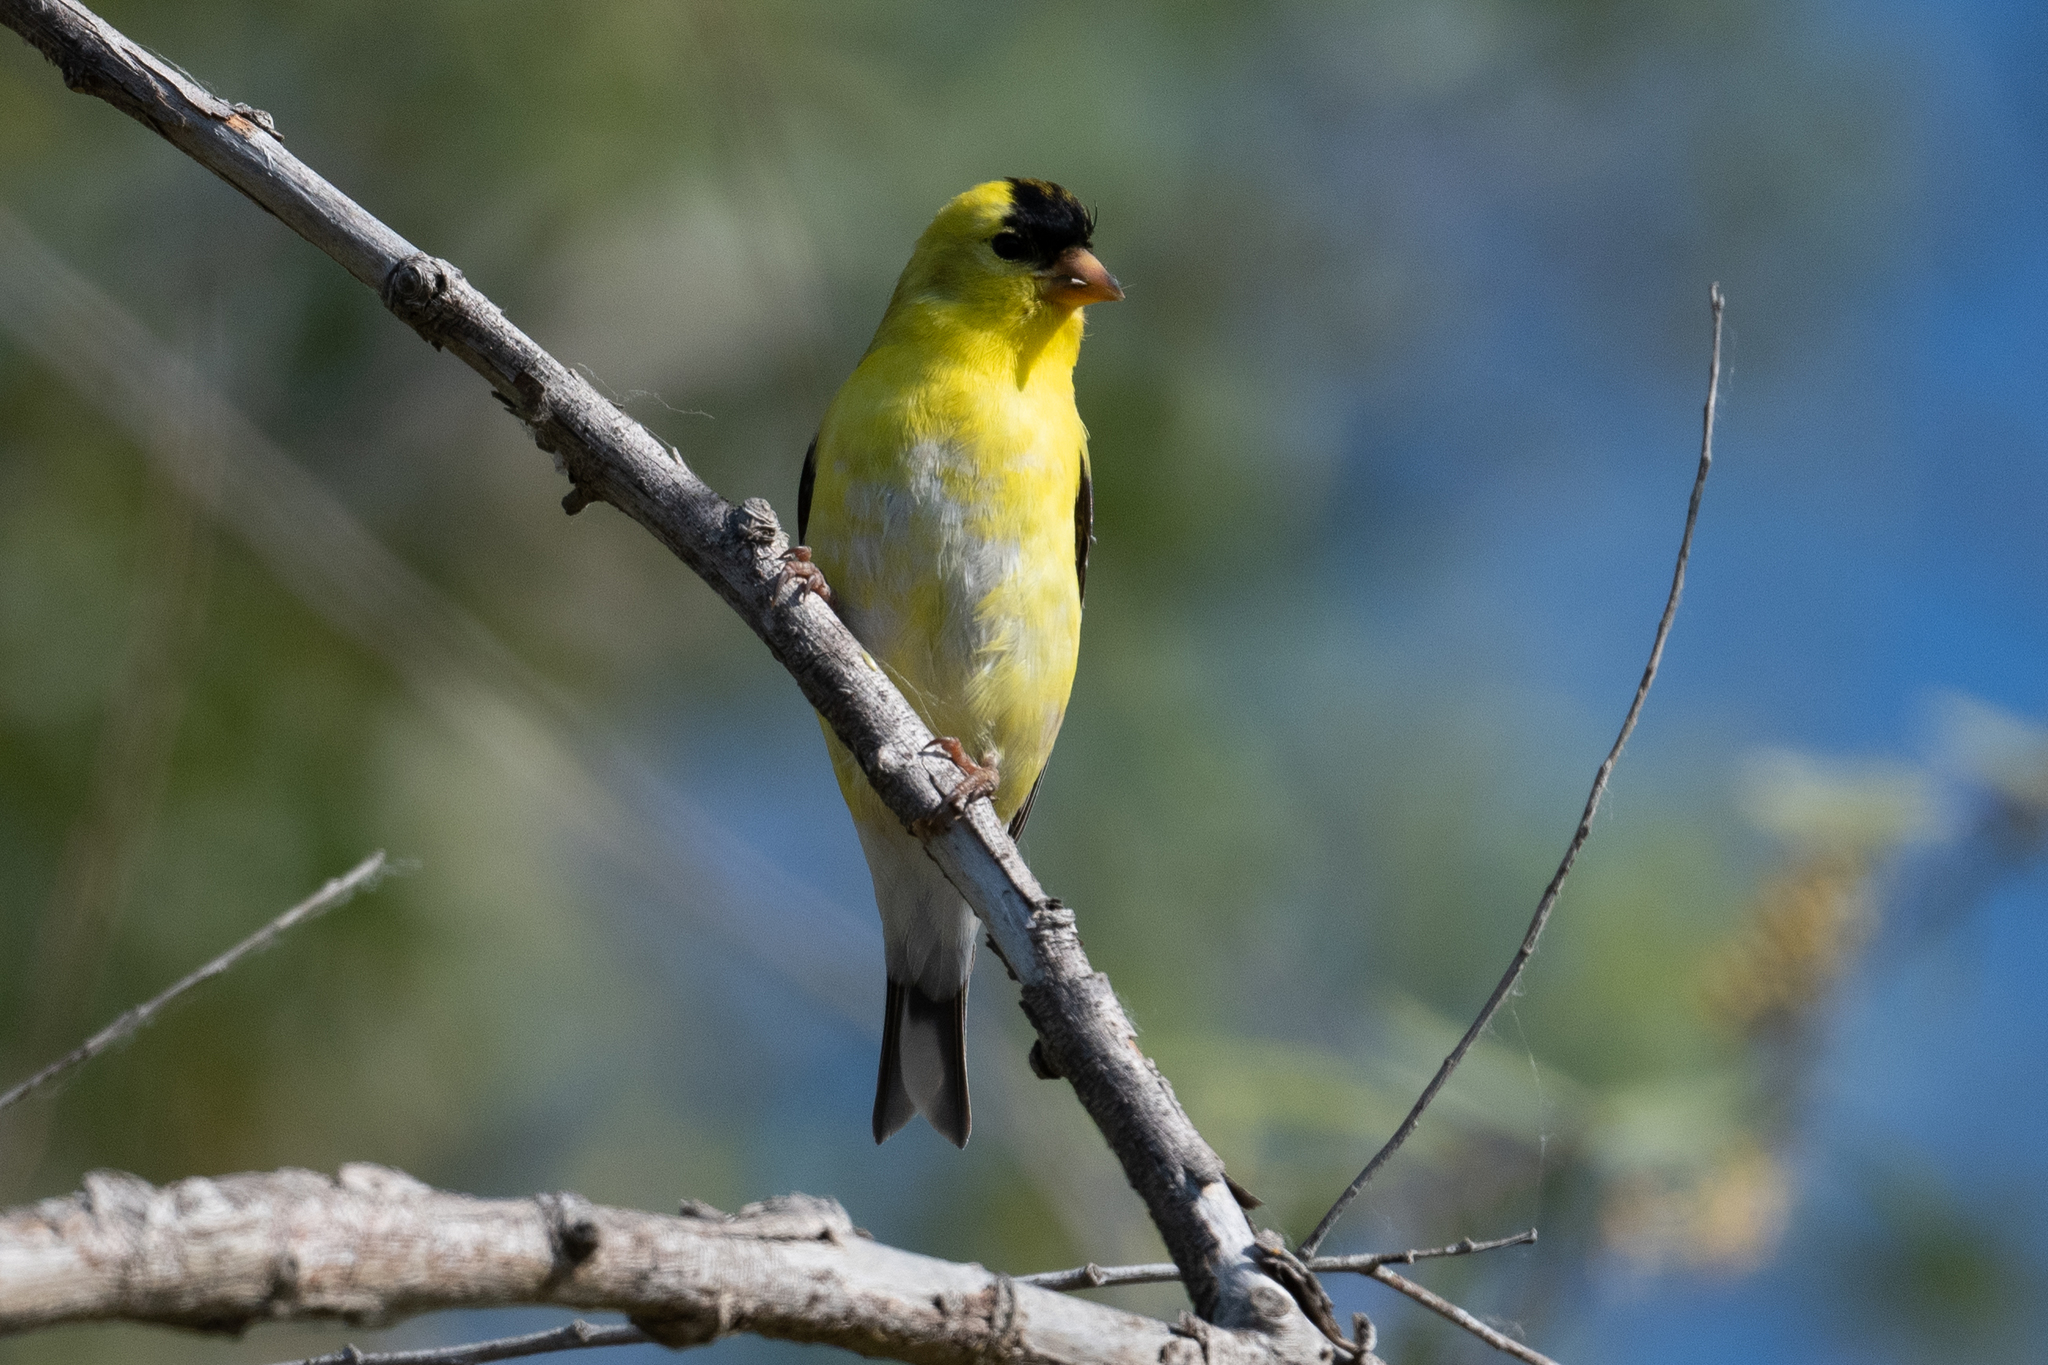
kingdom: Animalia
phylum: Chordata
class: Aves
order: Passeriformes
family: Fringillidae
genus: Spinus
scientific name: Spinus tristis
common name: American goldfinch
